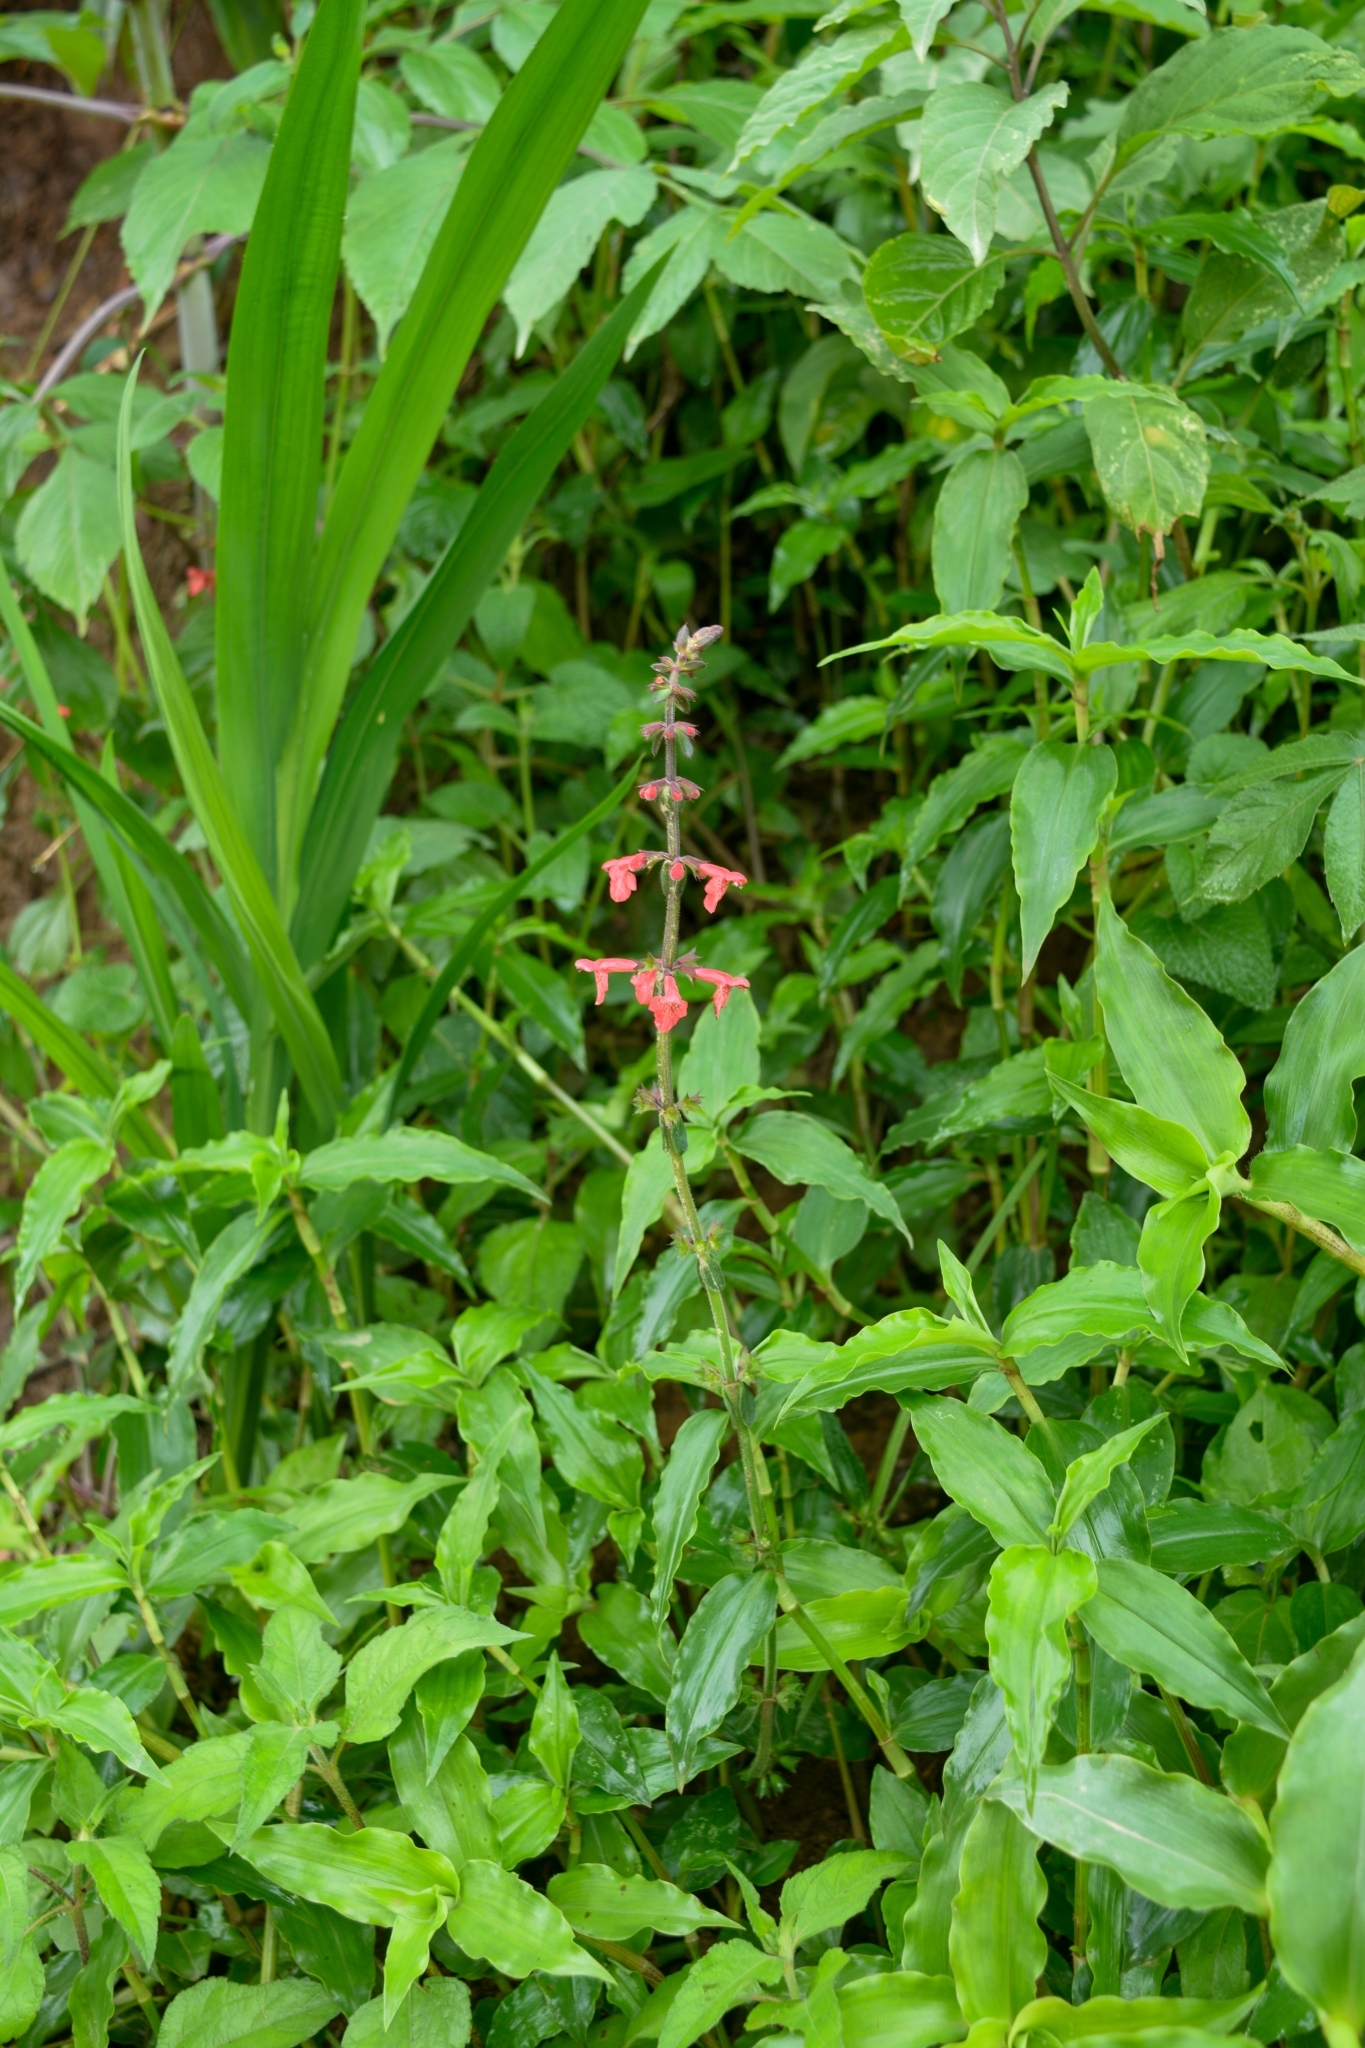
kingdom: Plantae
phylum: Tracheophyta
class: Magnoliopsida
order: Lamiales
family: Lamiaceae
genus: Stachys
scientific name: Stachys coccinea
